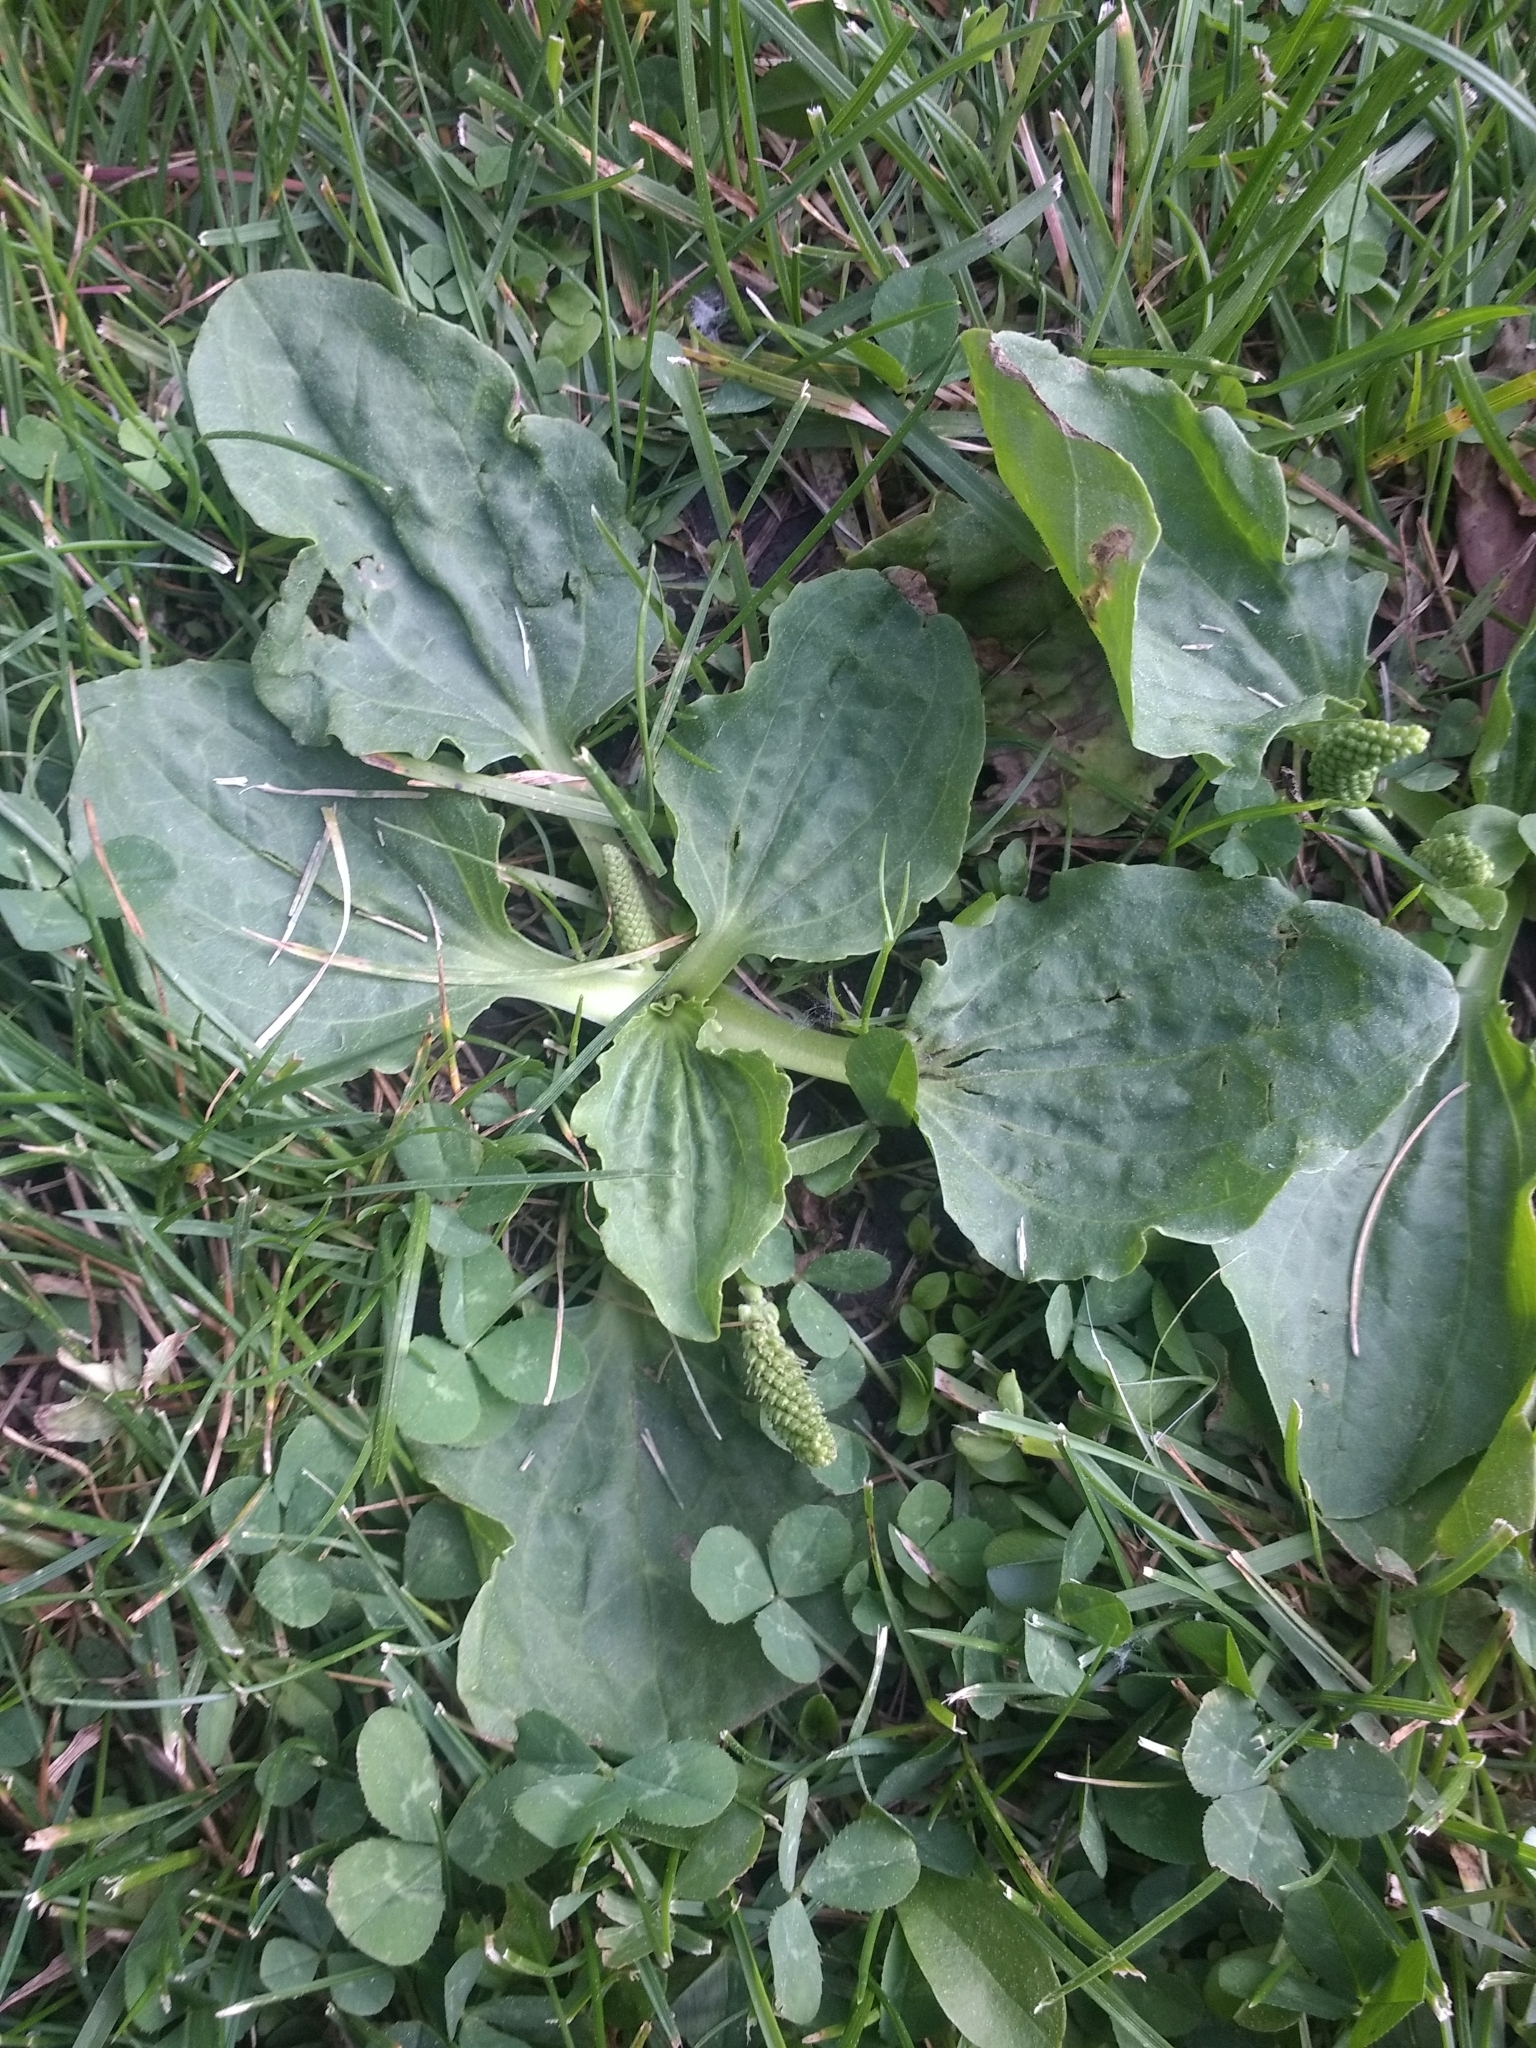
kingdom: Plantae
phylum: Tracheophyta
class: Magnoliopsida
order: Lamiales
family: Plantaginaceae
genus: Plantago
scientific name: Plantago major
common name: Common plantain
